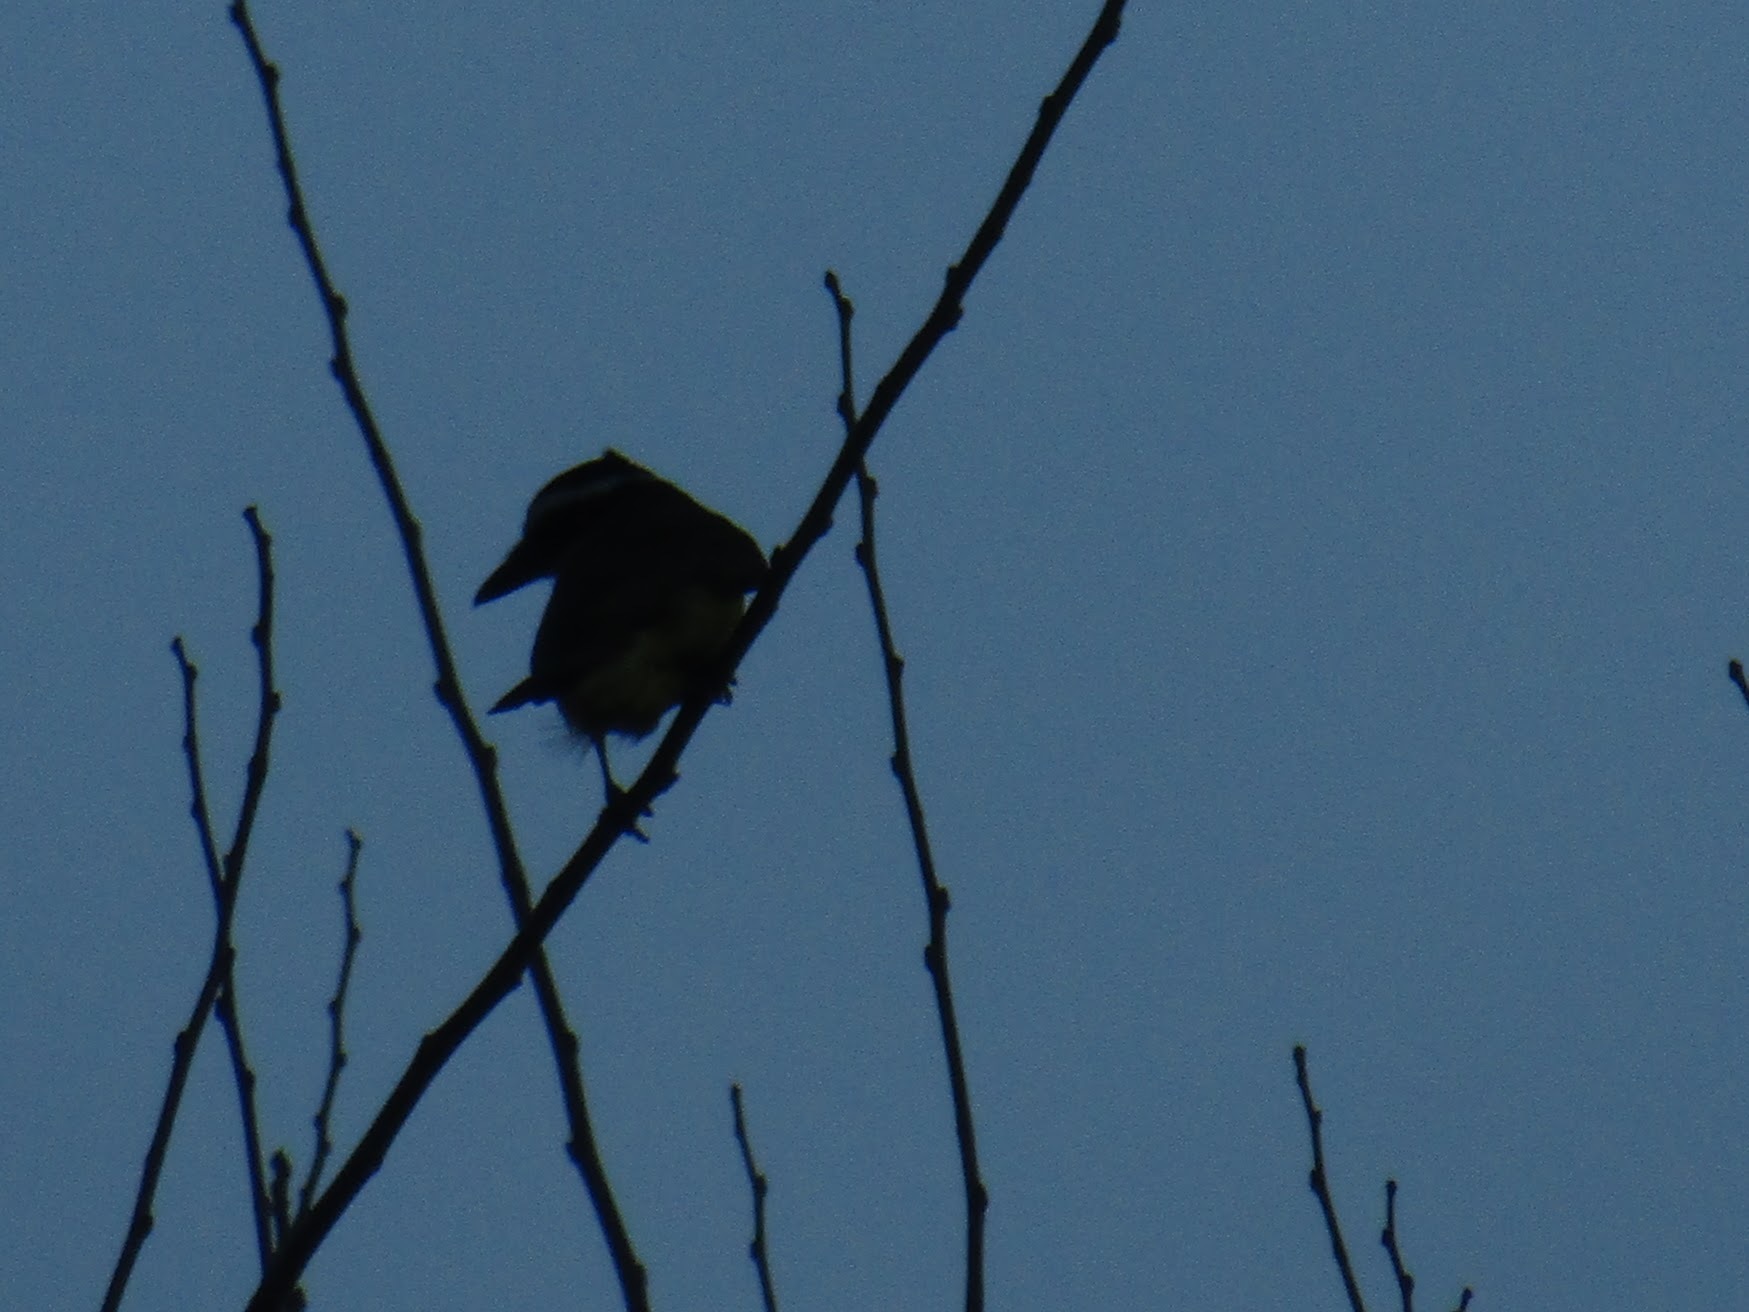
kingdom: Animalia
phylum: Chordata
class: Aves
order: Passeriformes
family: Tyrannidae
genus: Pitangus
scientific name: Pitangus sulphuratus
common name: Great kiskadee
